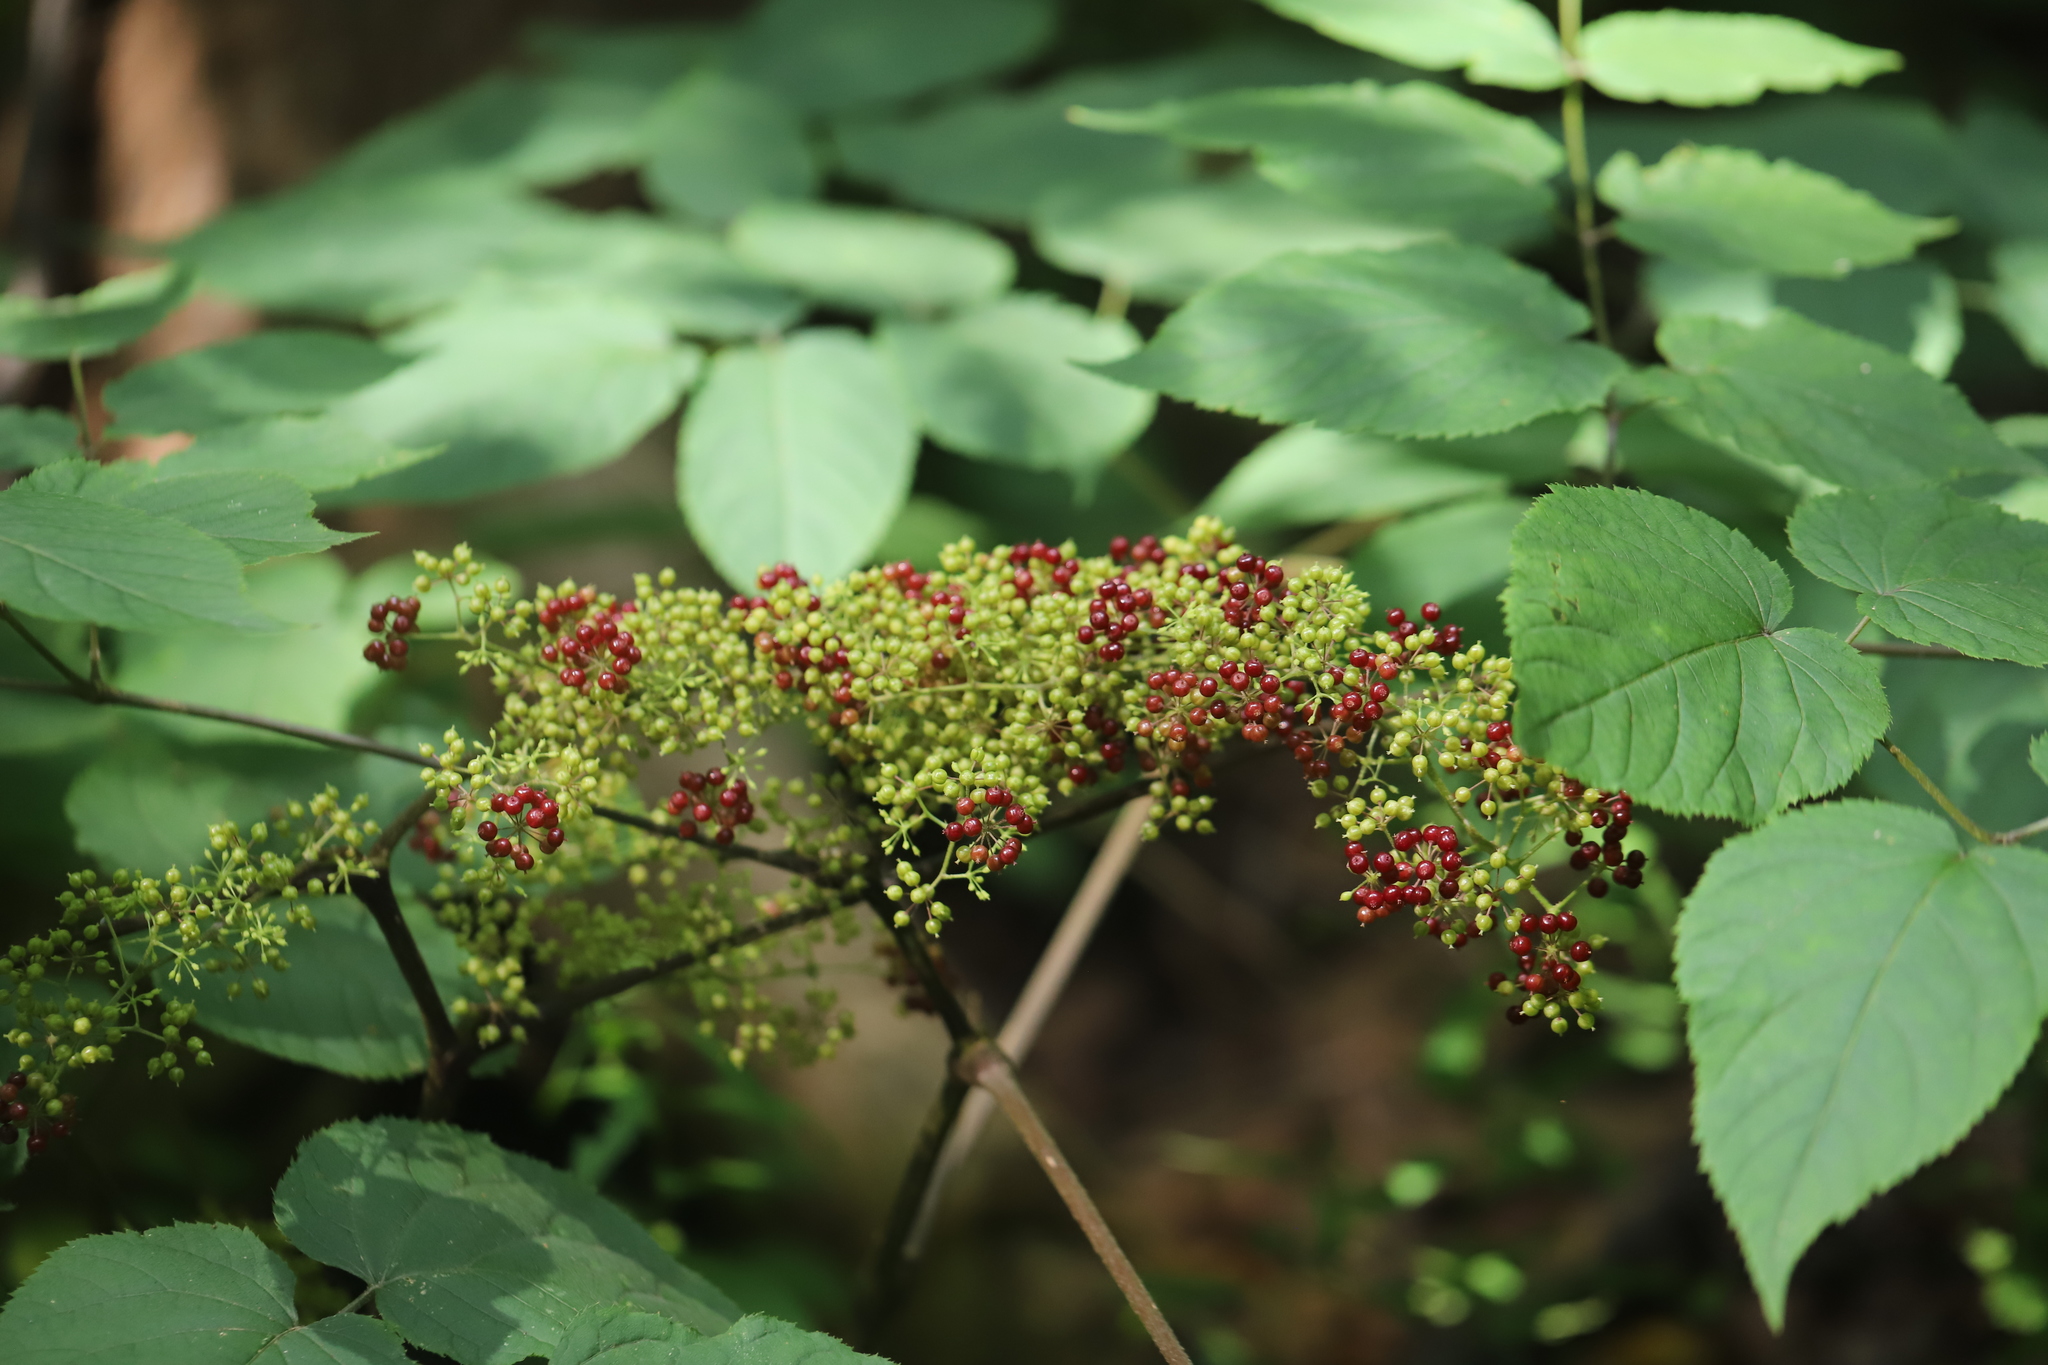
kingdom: Plantae
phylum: Tracheophyta
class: Magnoliopsida
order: Apiales
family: Araliaceae
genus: Aralia
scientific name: Aralia racemosa
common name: American-spikenard
